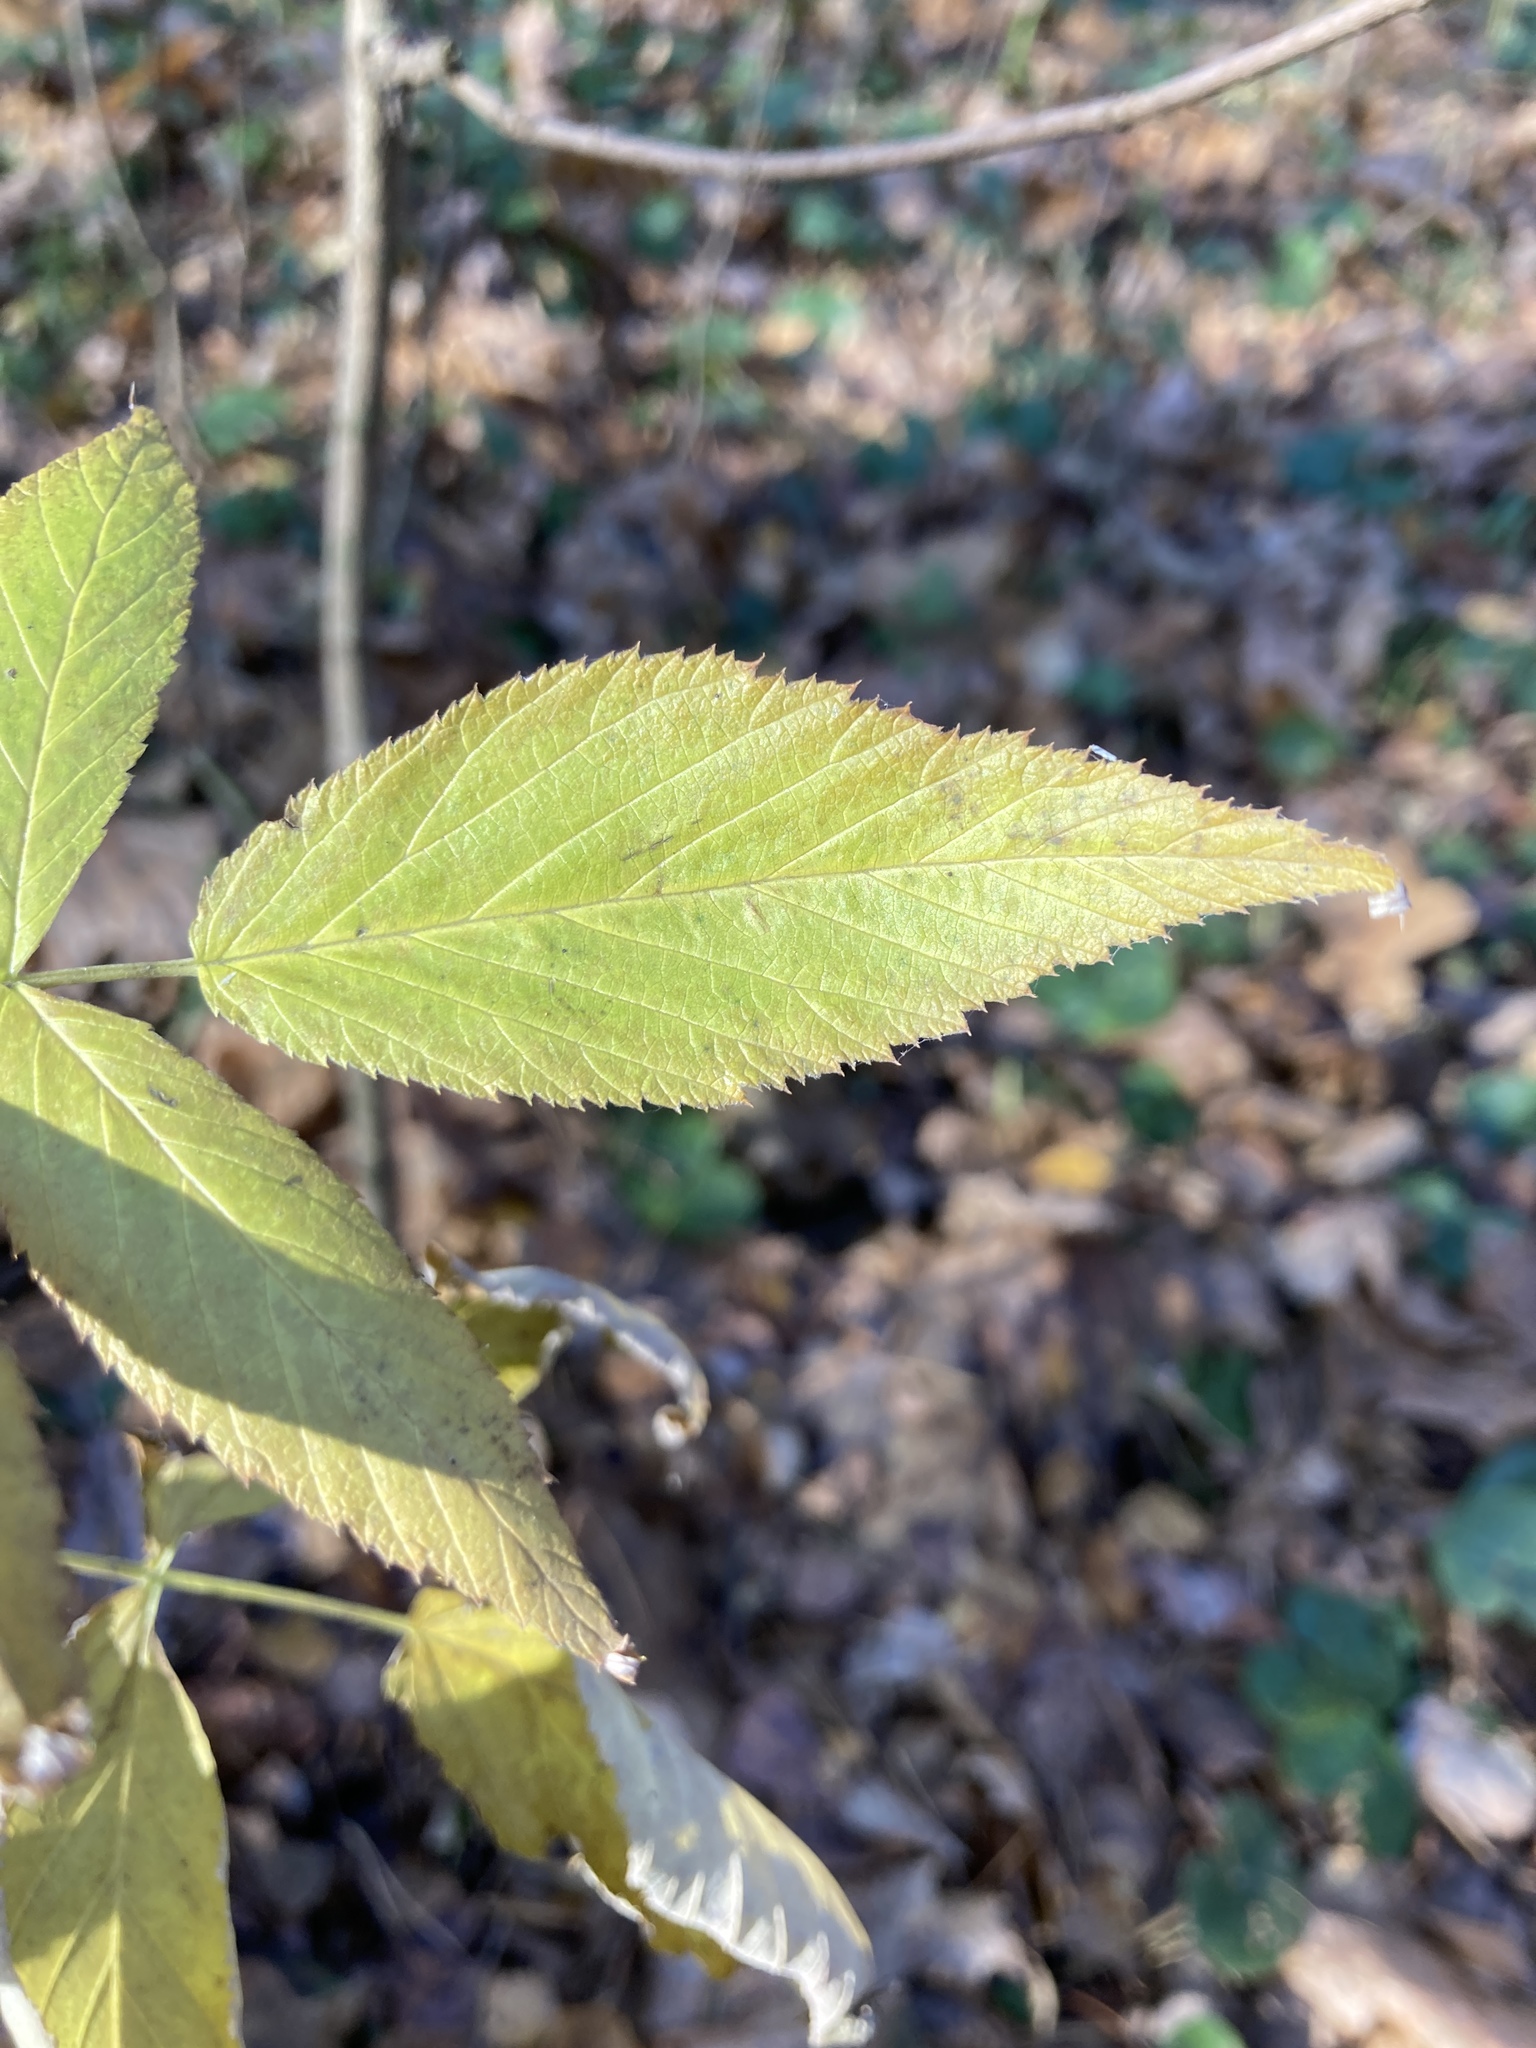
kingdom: Plantae
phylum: Tracheophyta
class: Magnoliopsida
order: Rosales
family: Rosaceae
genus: Rubus
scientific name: Rubus idaeus
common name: Raspberry
